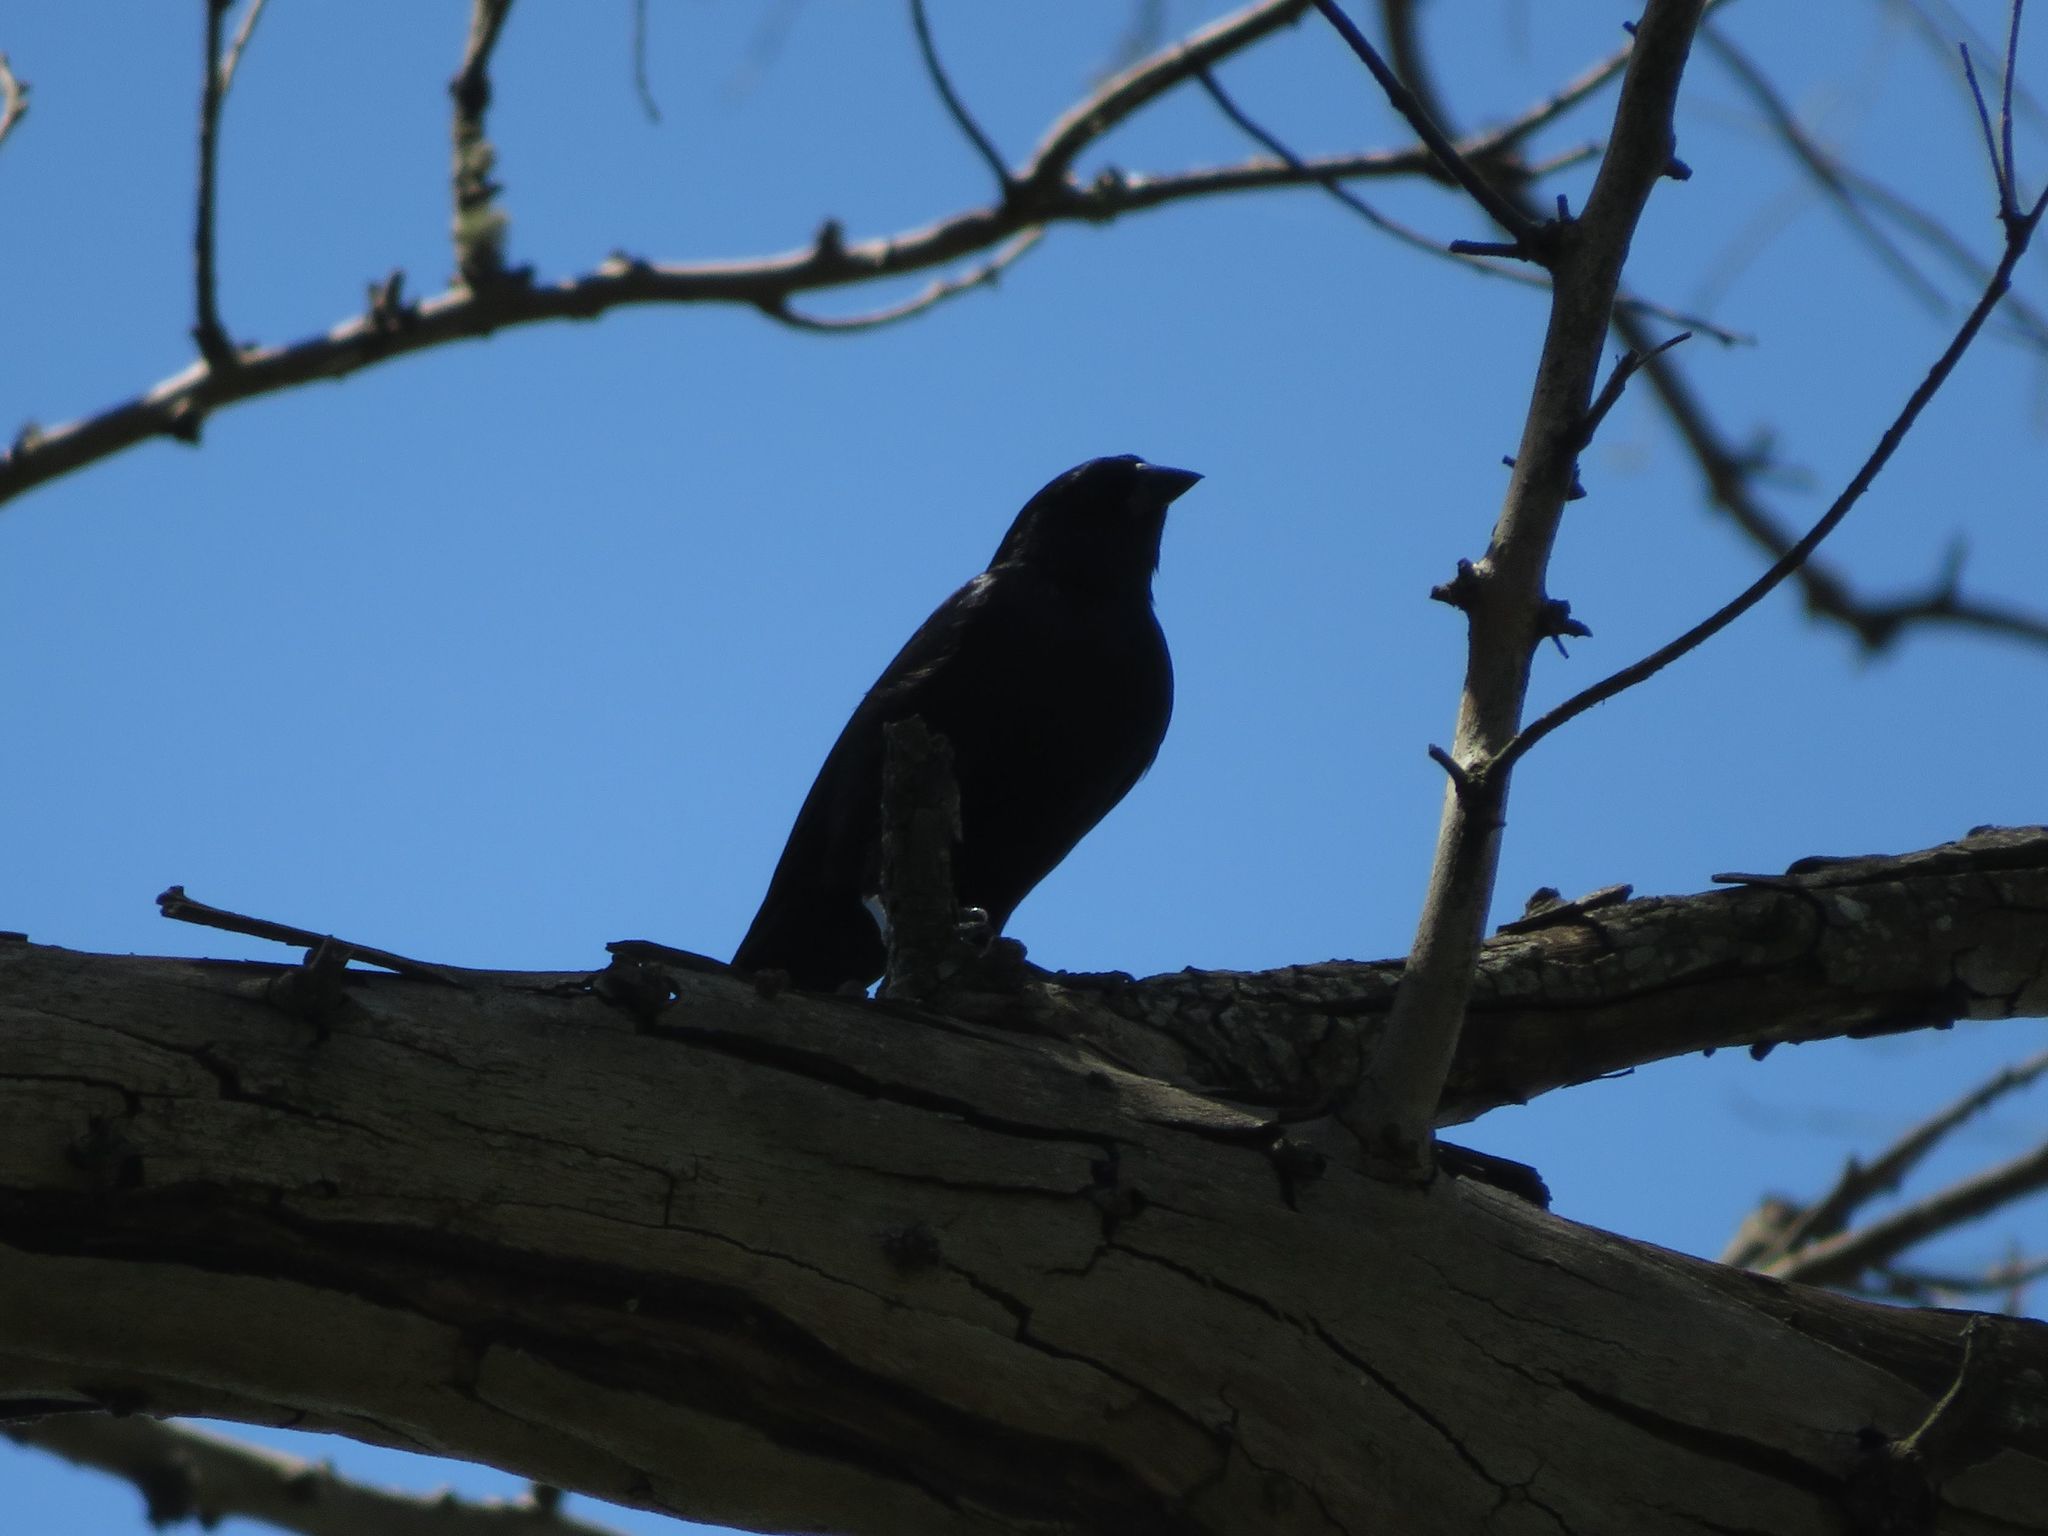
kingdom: Animalia
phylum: Chordata
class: Aves
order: Passeriformes
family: Icteridae
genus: Molothrus
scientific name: Molothrus bonariensis
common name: Shiny cowbird
